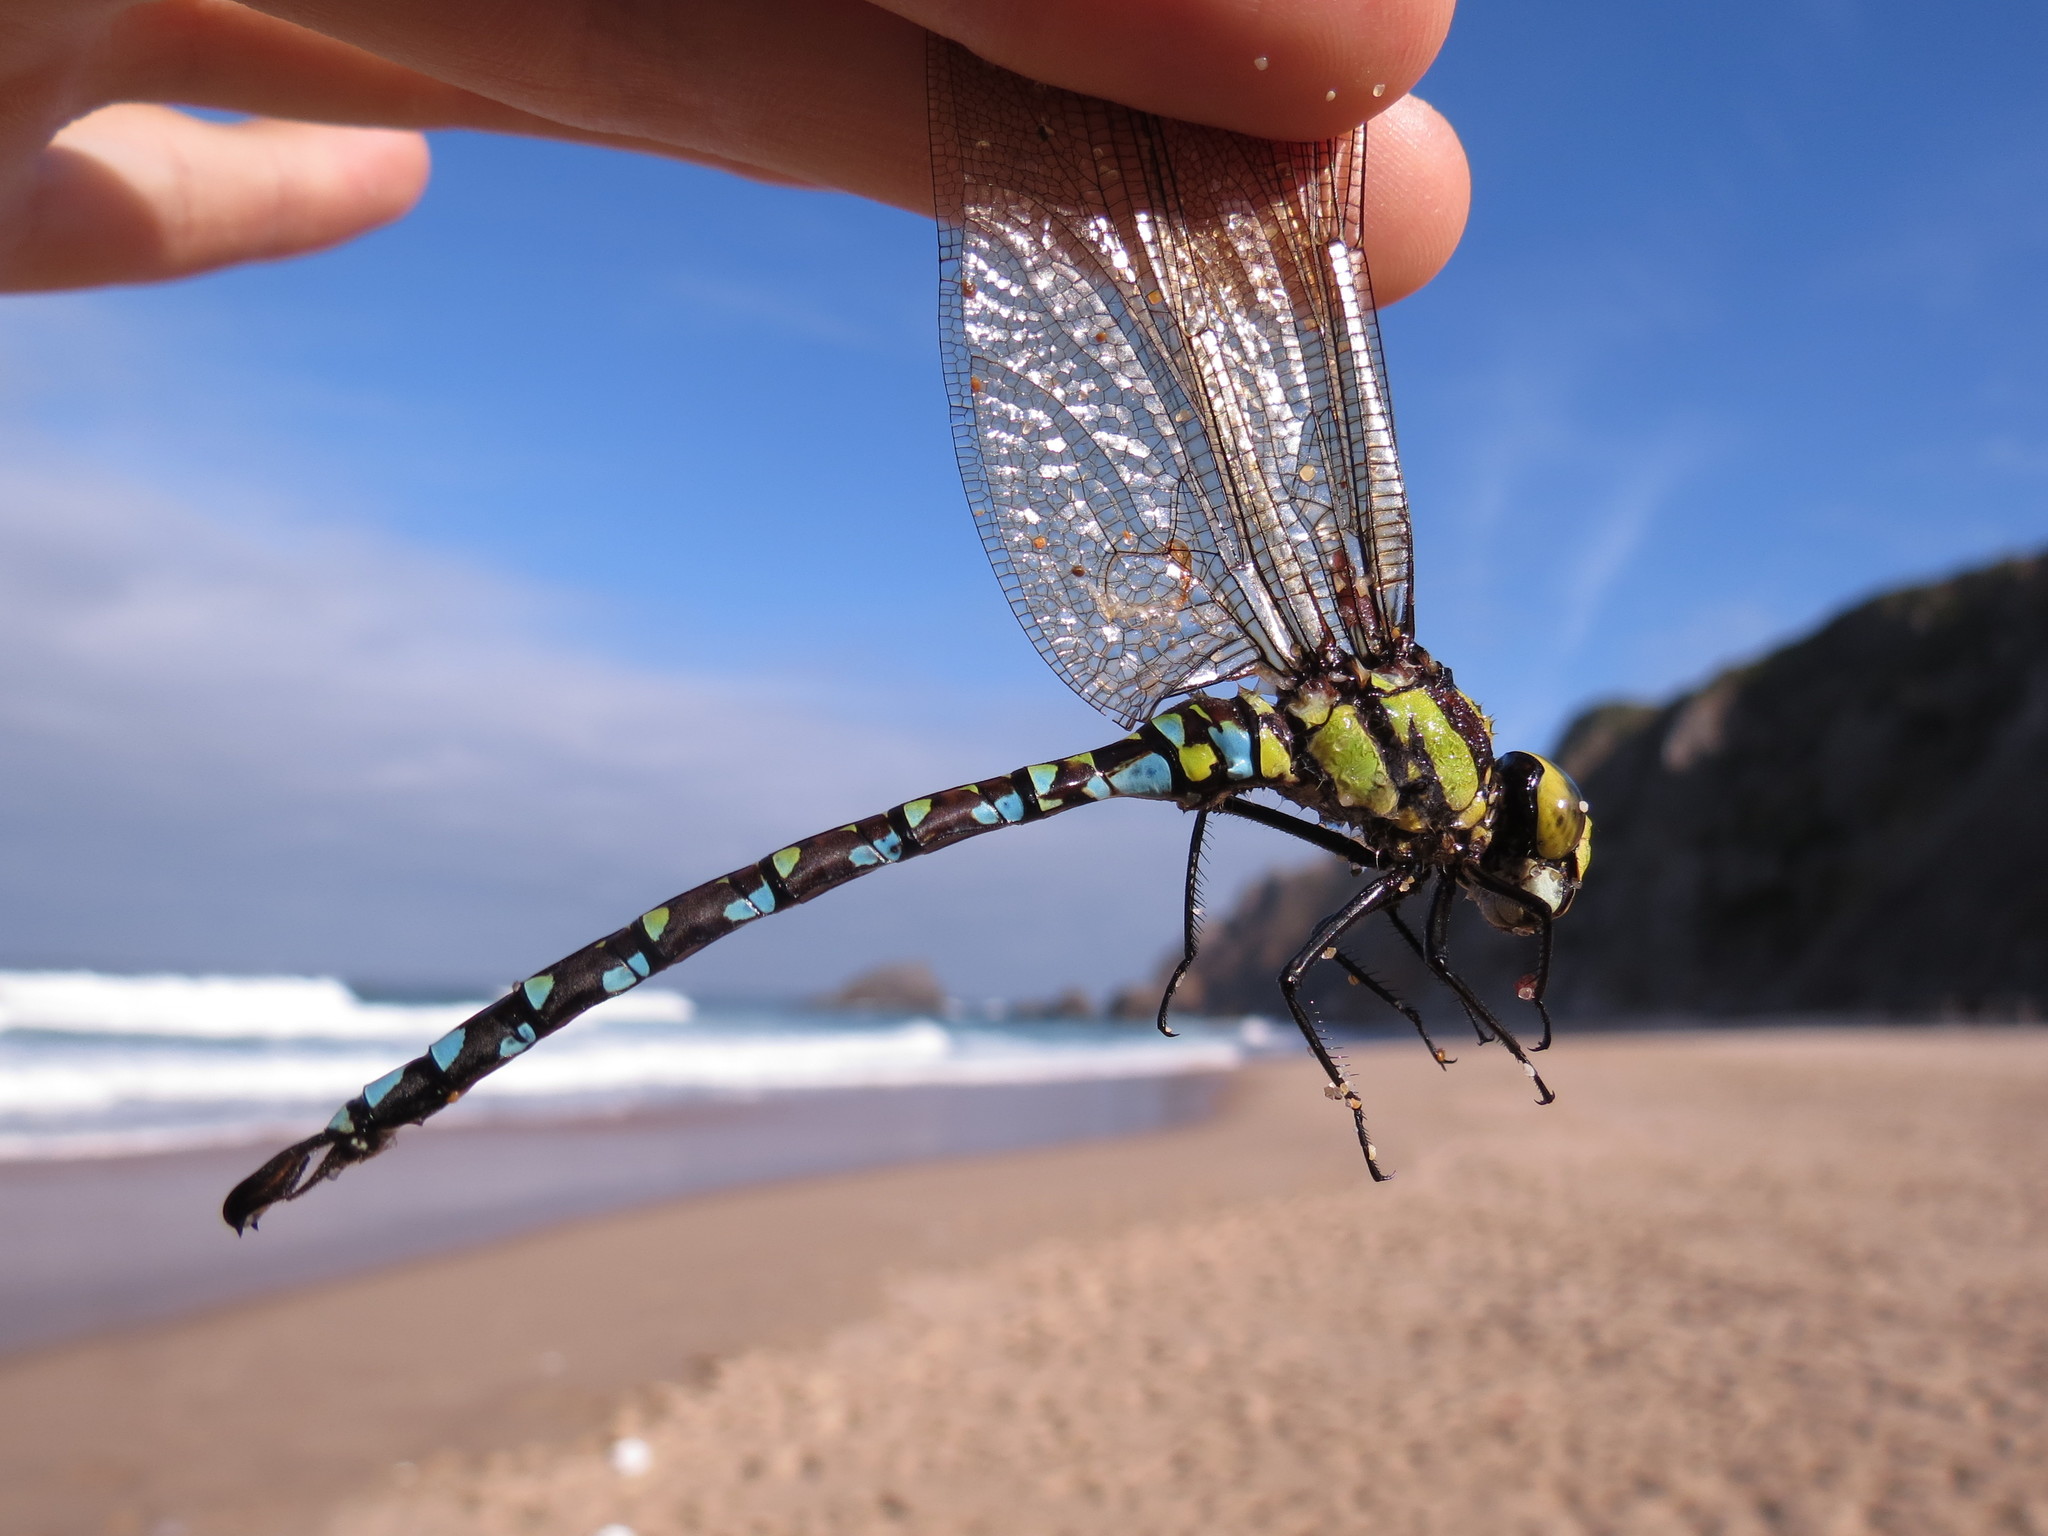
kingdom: Animalia
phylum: Arthropoda
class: Insecta
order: Odonata
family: Aeshnidae
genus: Aeshna
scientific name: Aeshna cyanea
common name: Southern hawker
